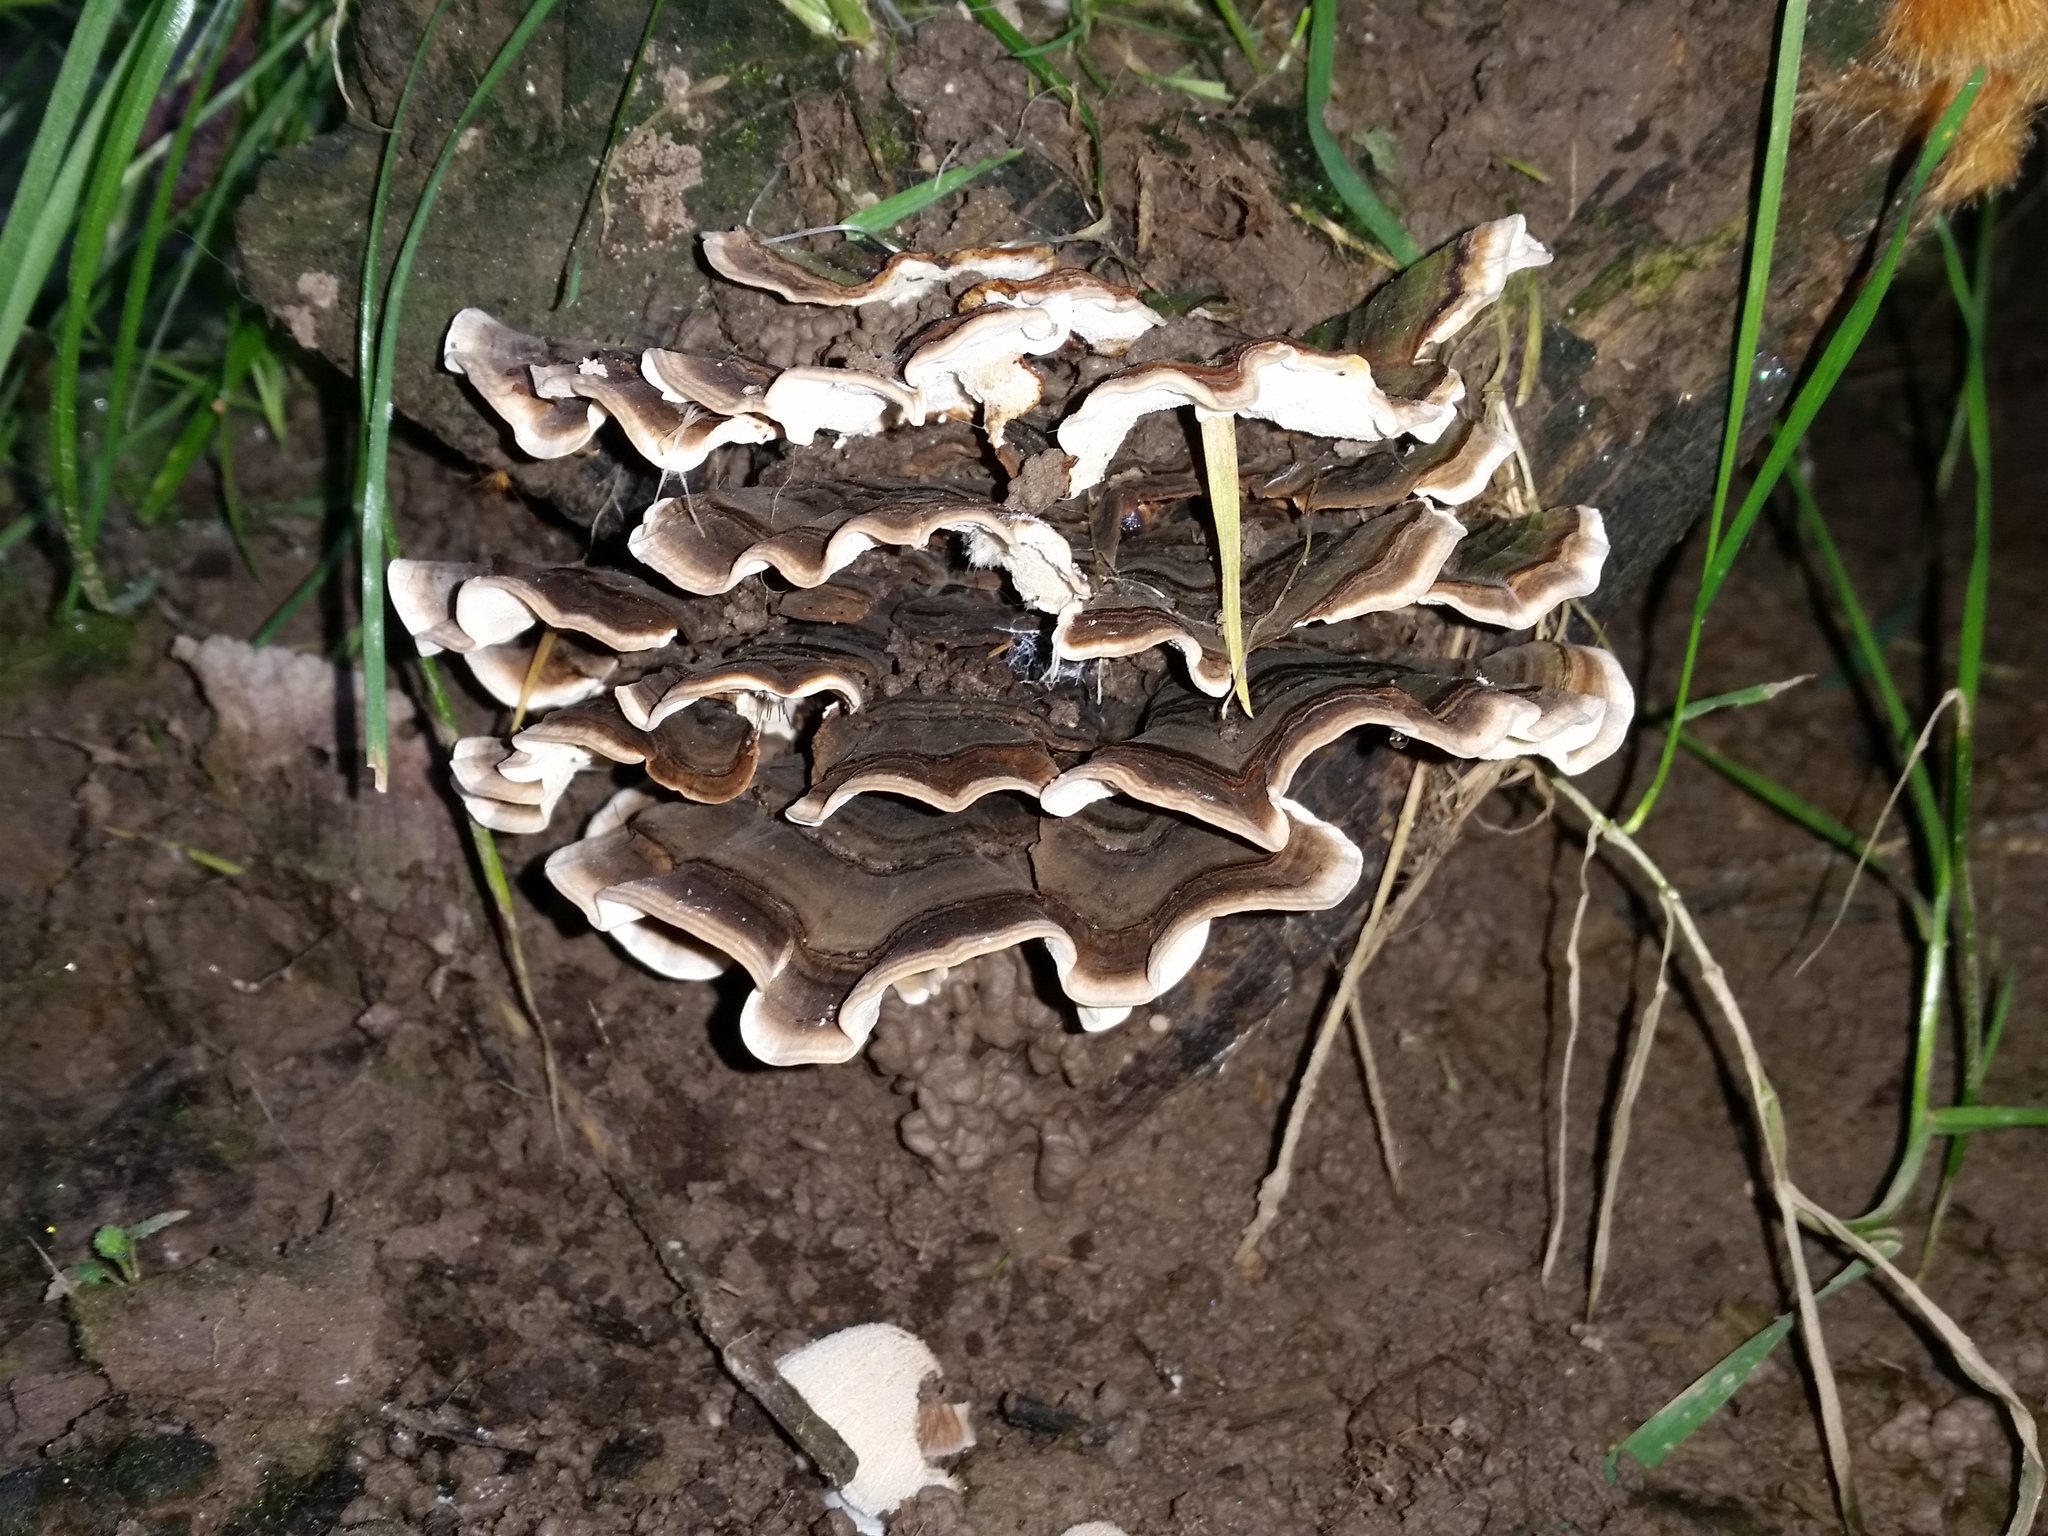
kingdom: Fungi
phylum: Basidiomycota
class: Agaricomycetes
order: Polyporales
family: Polyporaceae
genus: Trametes
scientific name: Trametes versicolor
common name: Turkeytail
